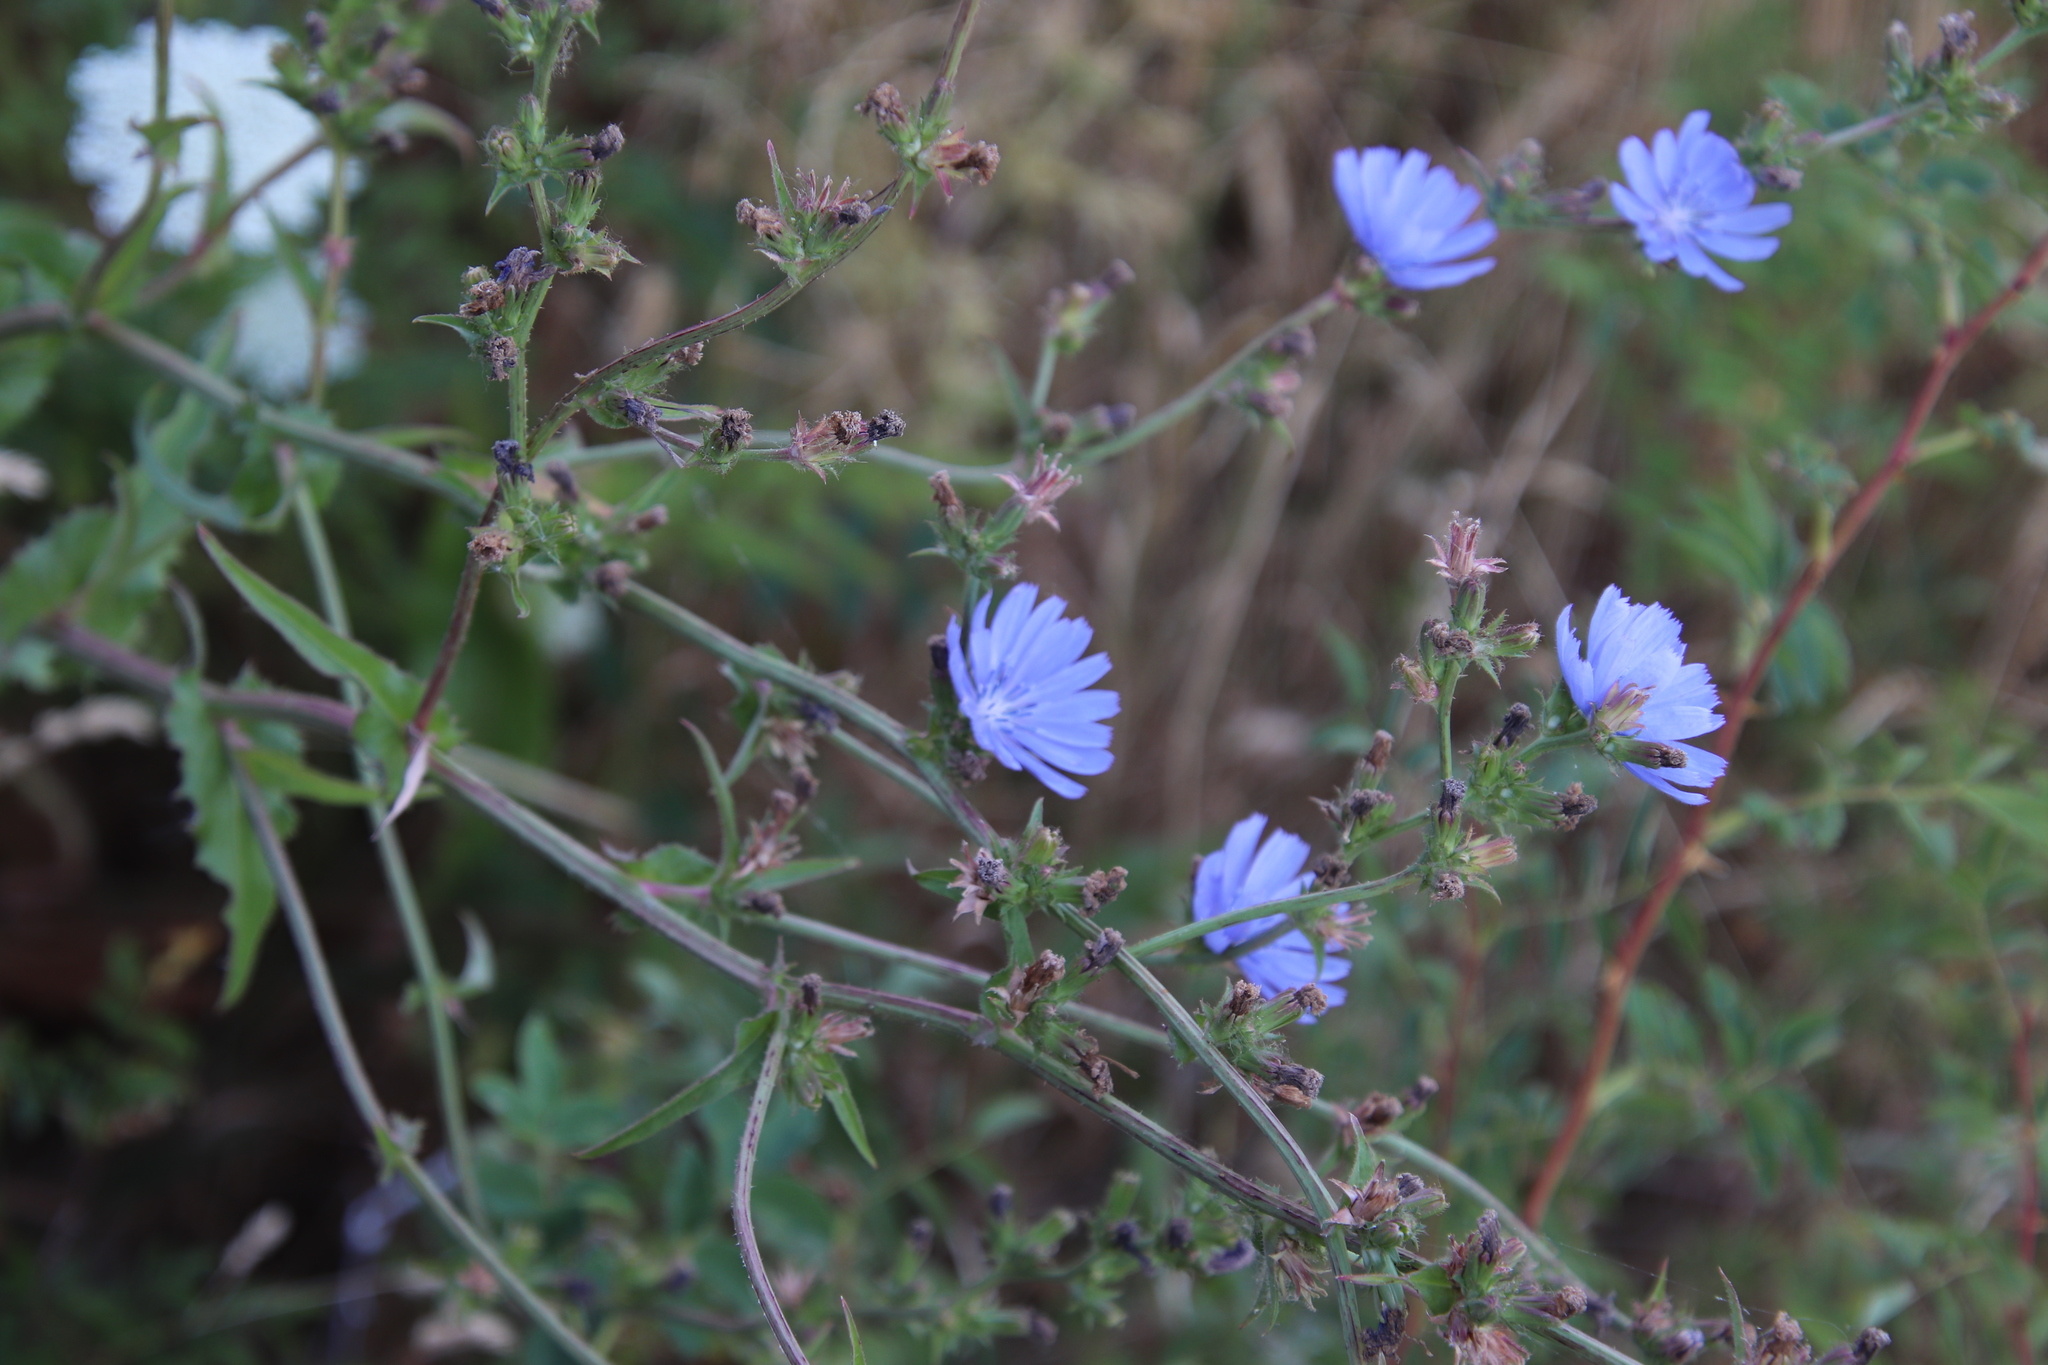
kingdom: Plantae
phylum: Tracheophyta
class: Magnoliopsida
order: Asterales
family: Asteraceae
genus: Cichorium
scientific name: Cichorium intybus
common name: Chicory
